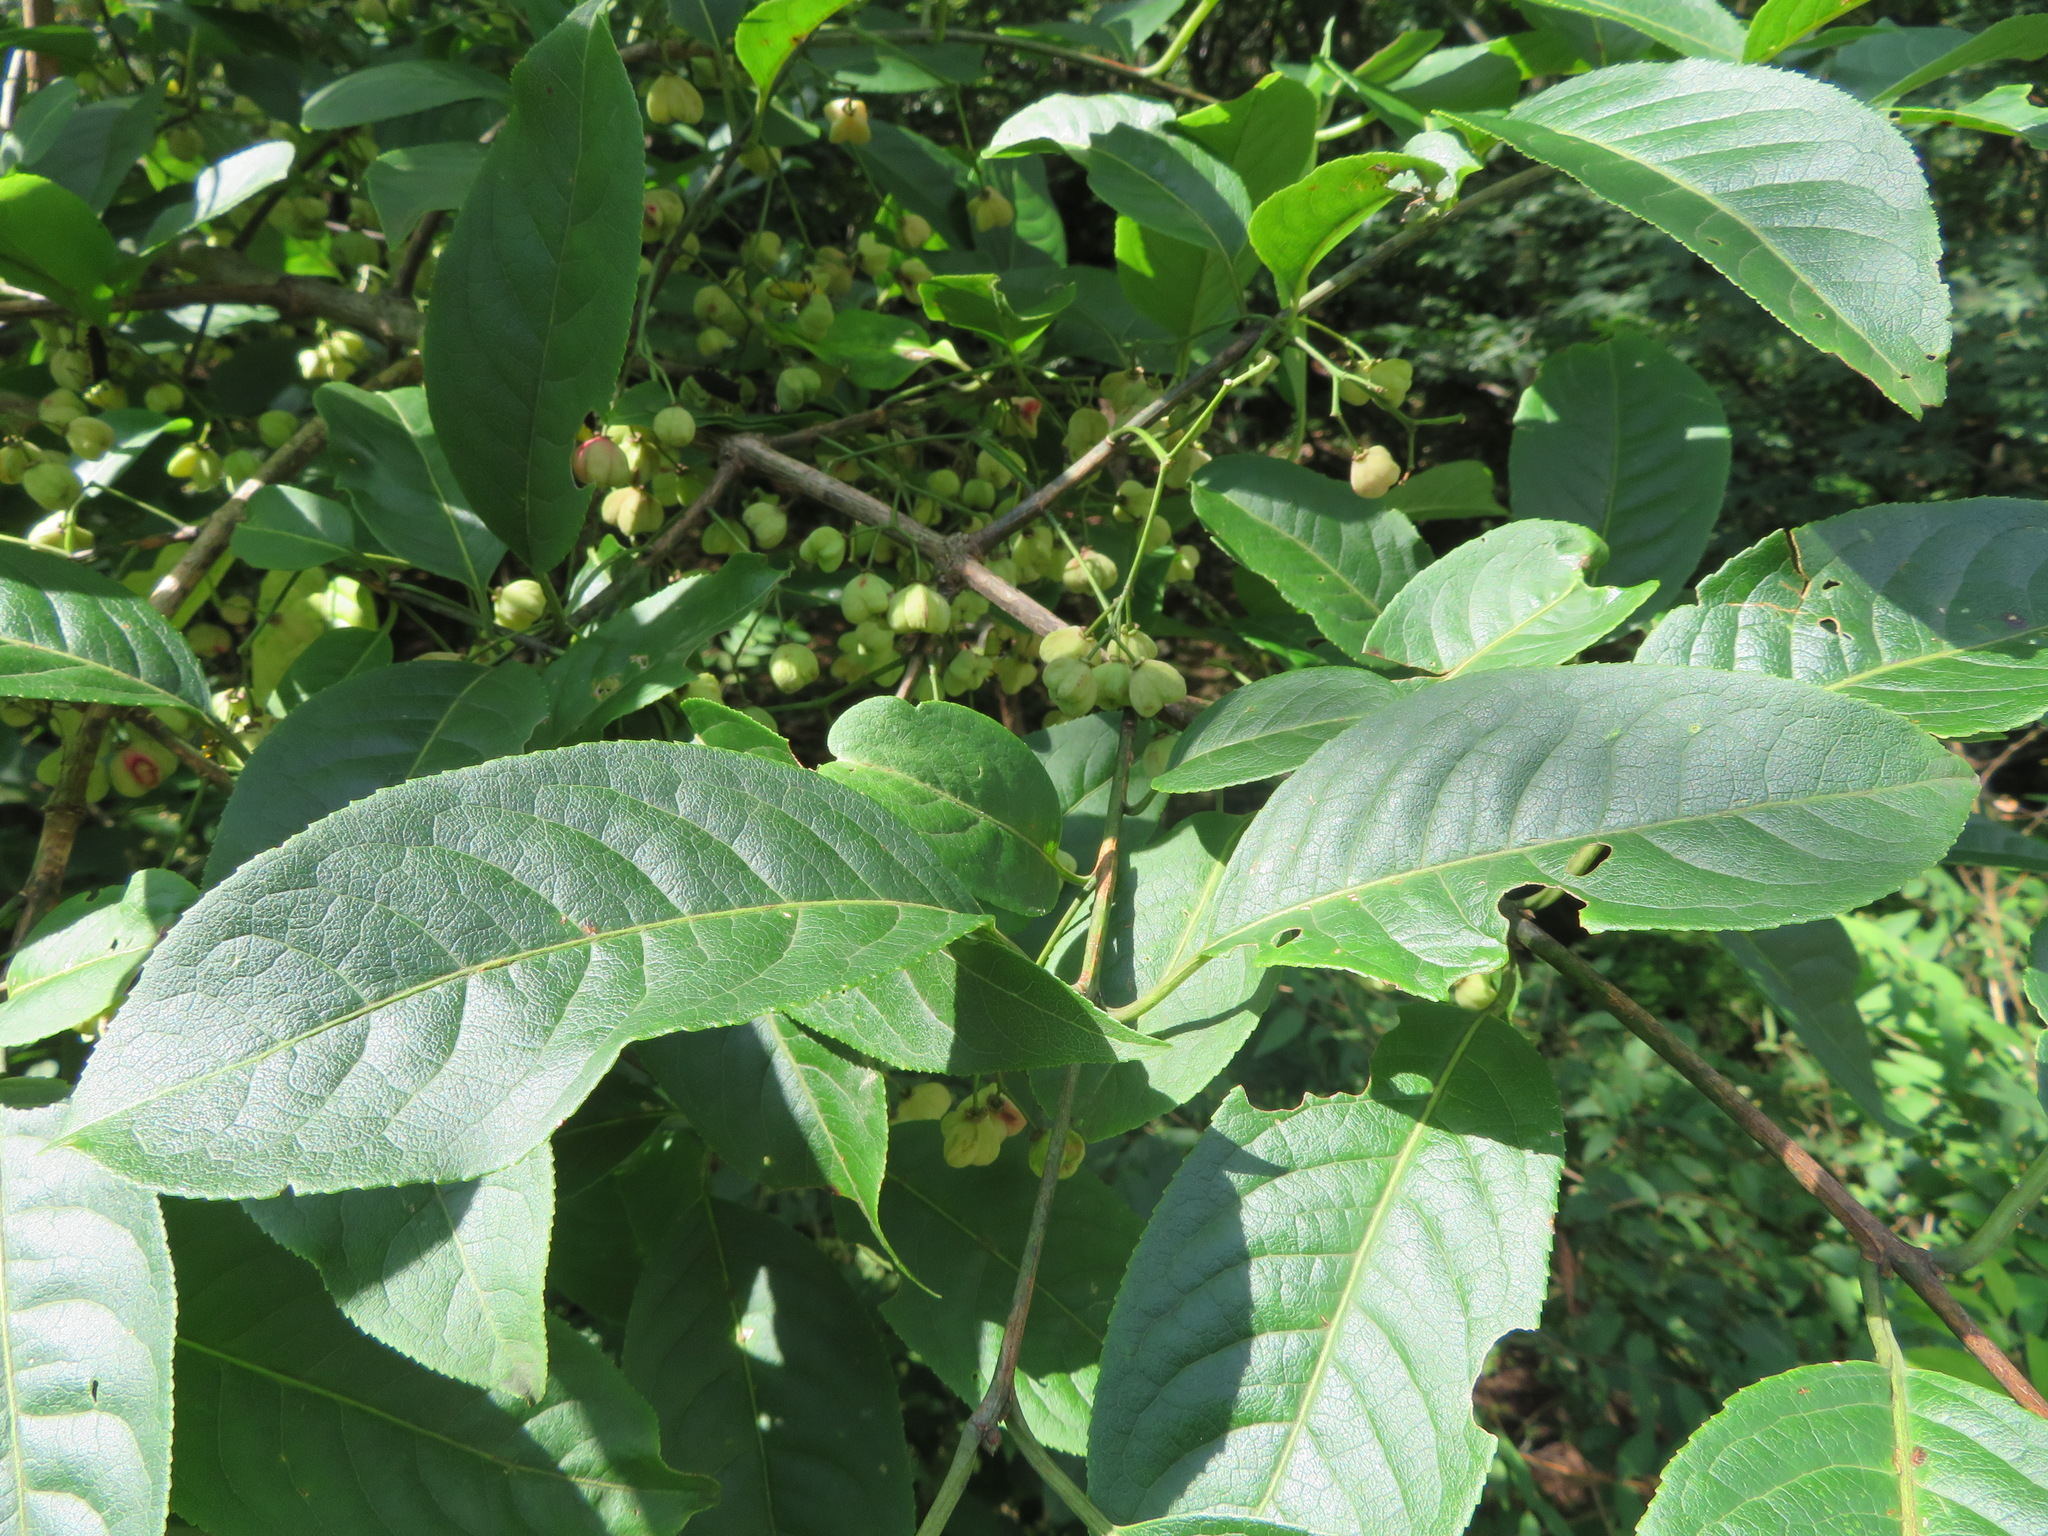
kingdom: Plantae
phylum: Tracheophyta
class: Magnoliopsida
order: Celastrales
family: Celastraceae
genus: Euonymus
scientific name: Euonymus hamiltonianus
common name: Hamilton's spindletree
